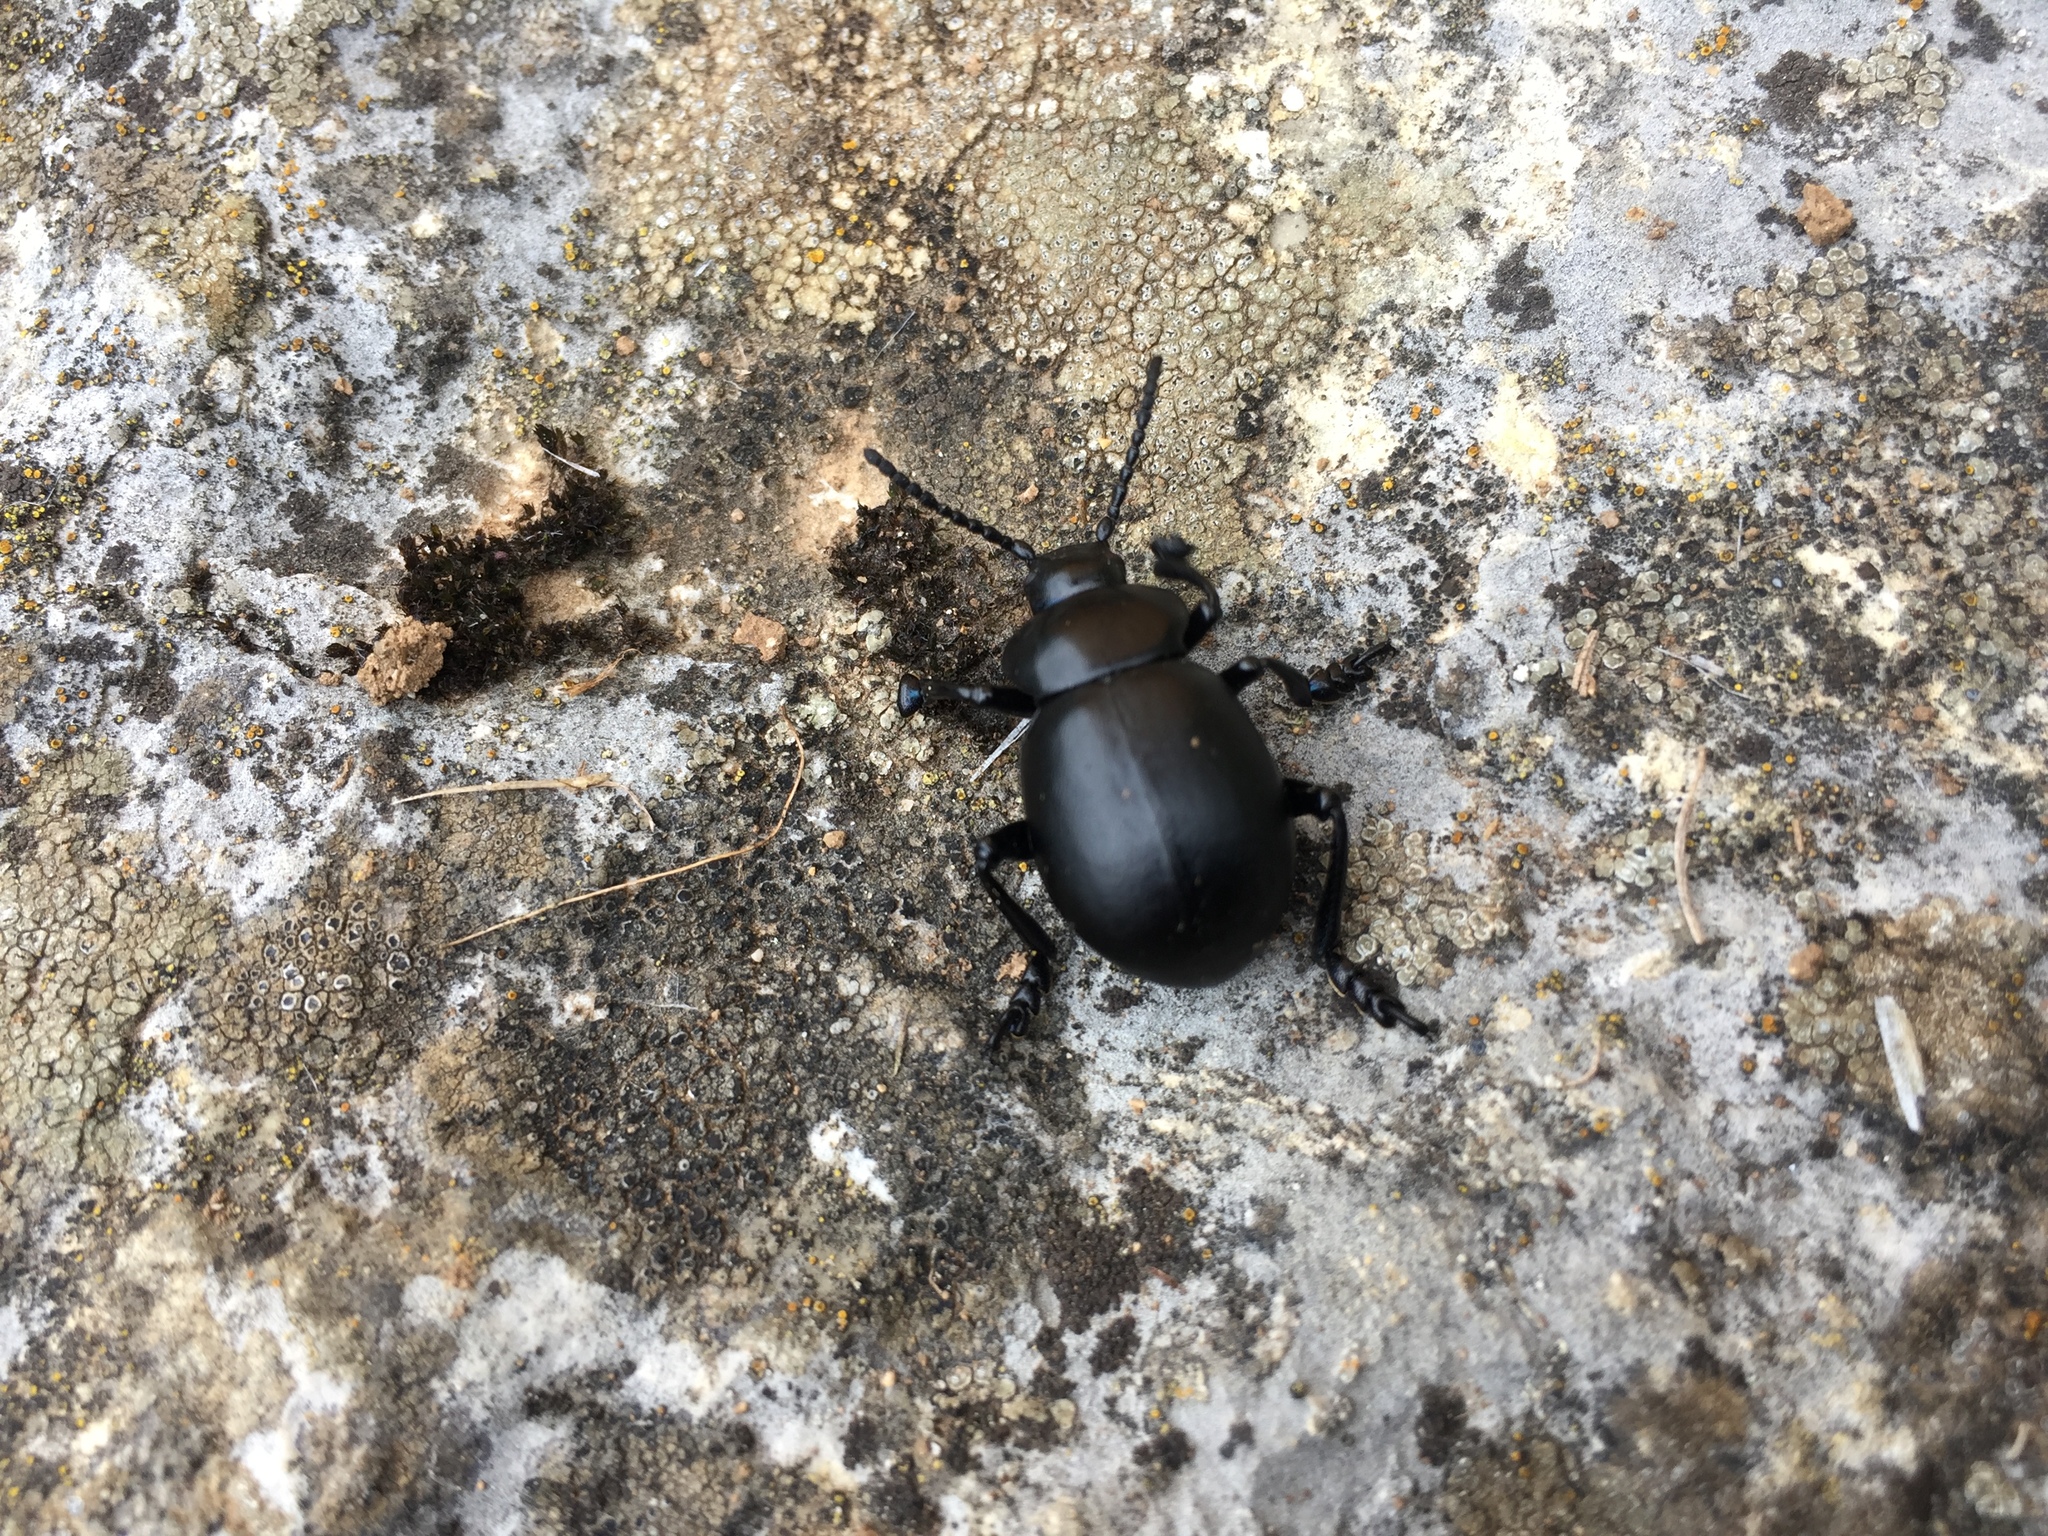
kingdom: Animalia
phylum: Arthropoda
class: Insecta
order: Coleoptera
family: Chrysomelidae
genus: Timarcha
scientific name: Timarcha tenebricosa
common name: Bloody-nosed beetle
